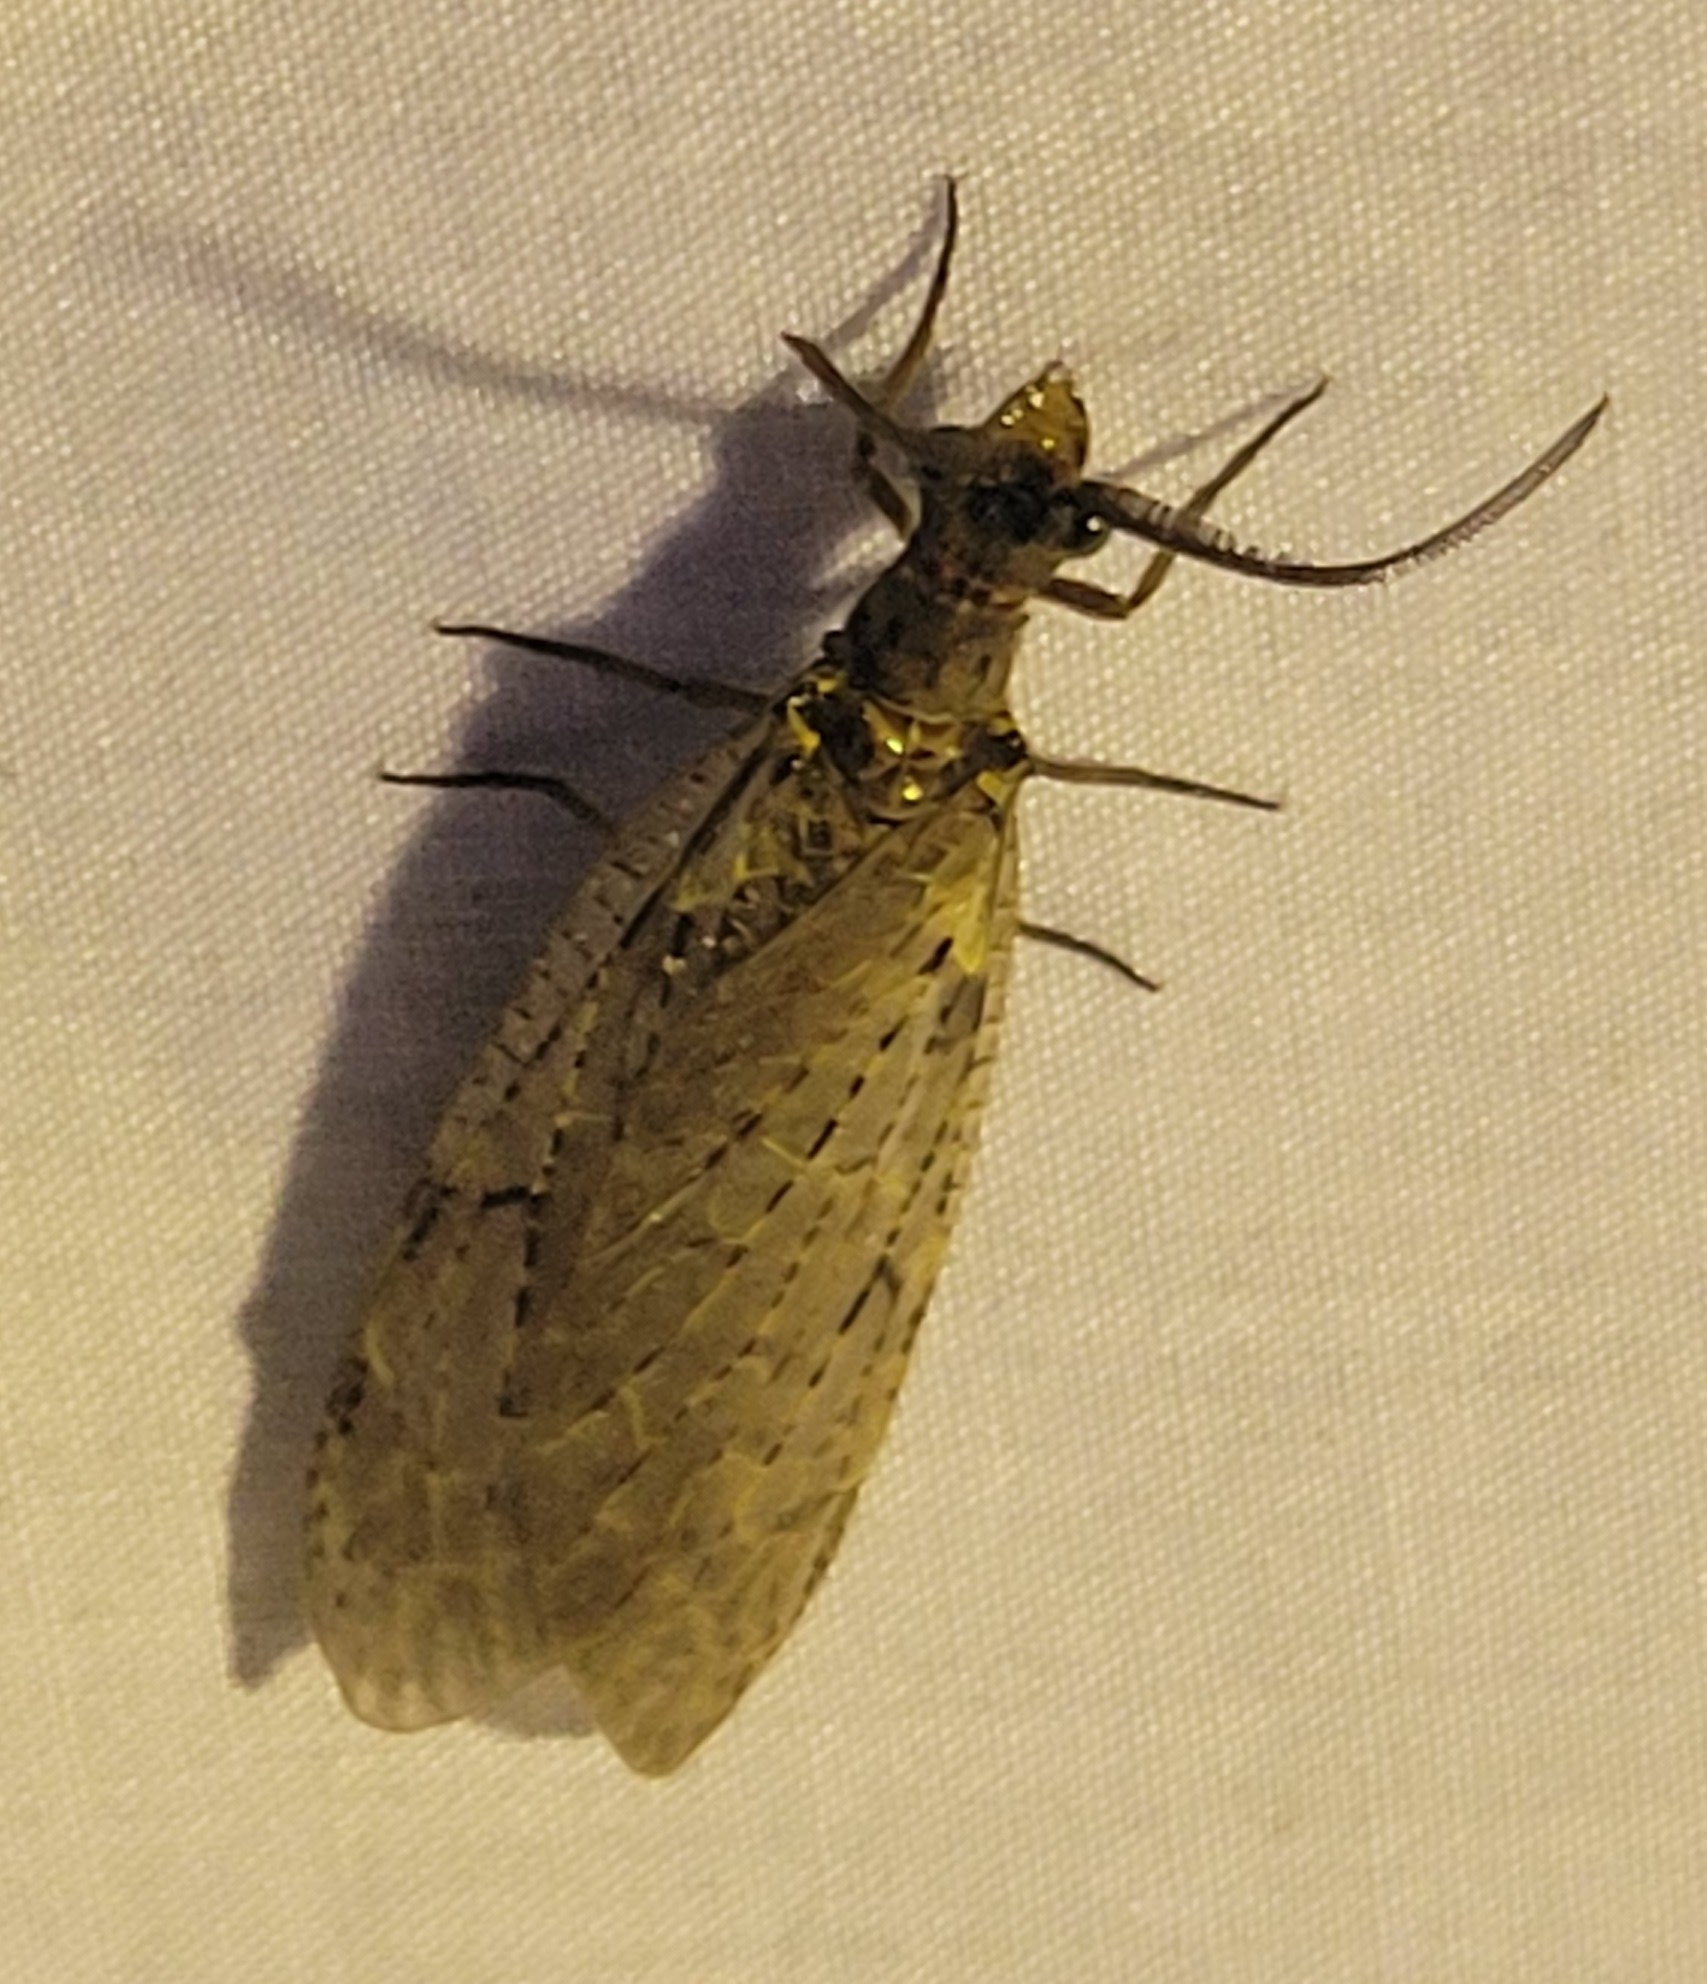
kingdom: Animalia
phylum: Arthropoda
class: Insecta
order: Megaloptera
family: Corydalidae
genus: Chauliodes
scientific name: Chauliodes rastricornis
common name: Spring fishfly
